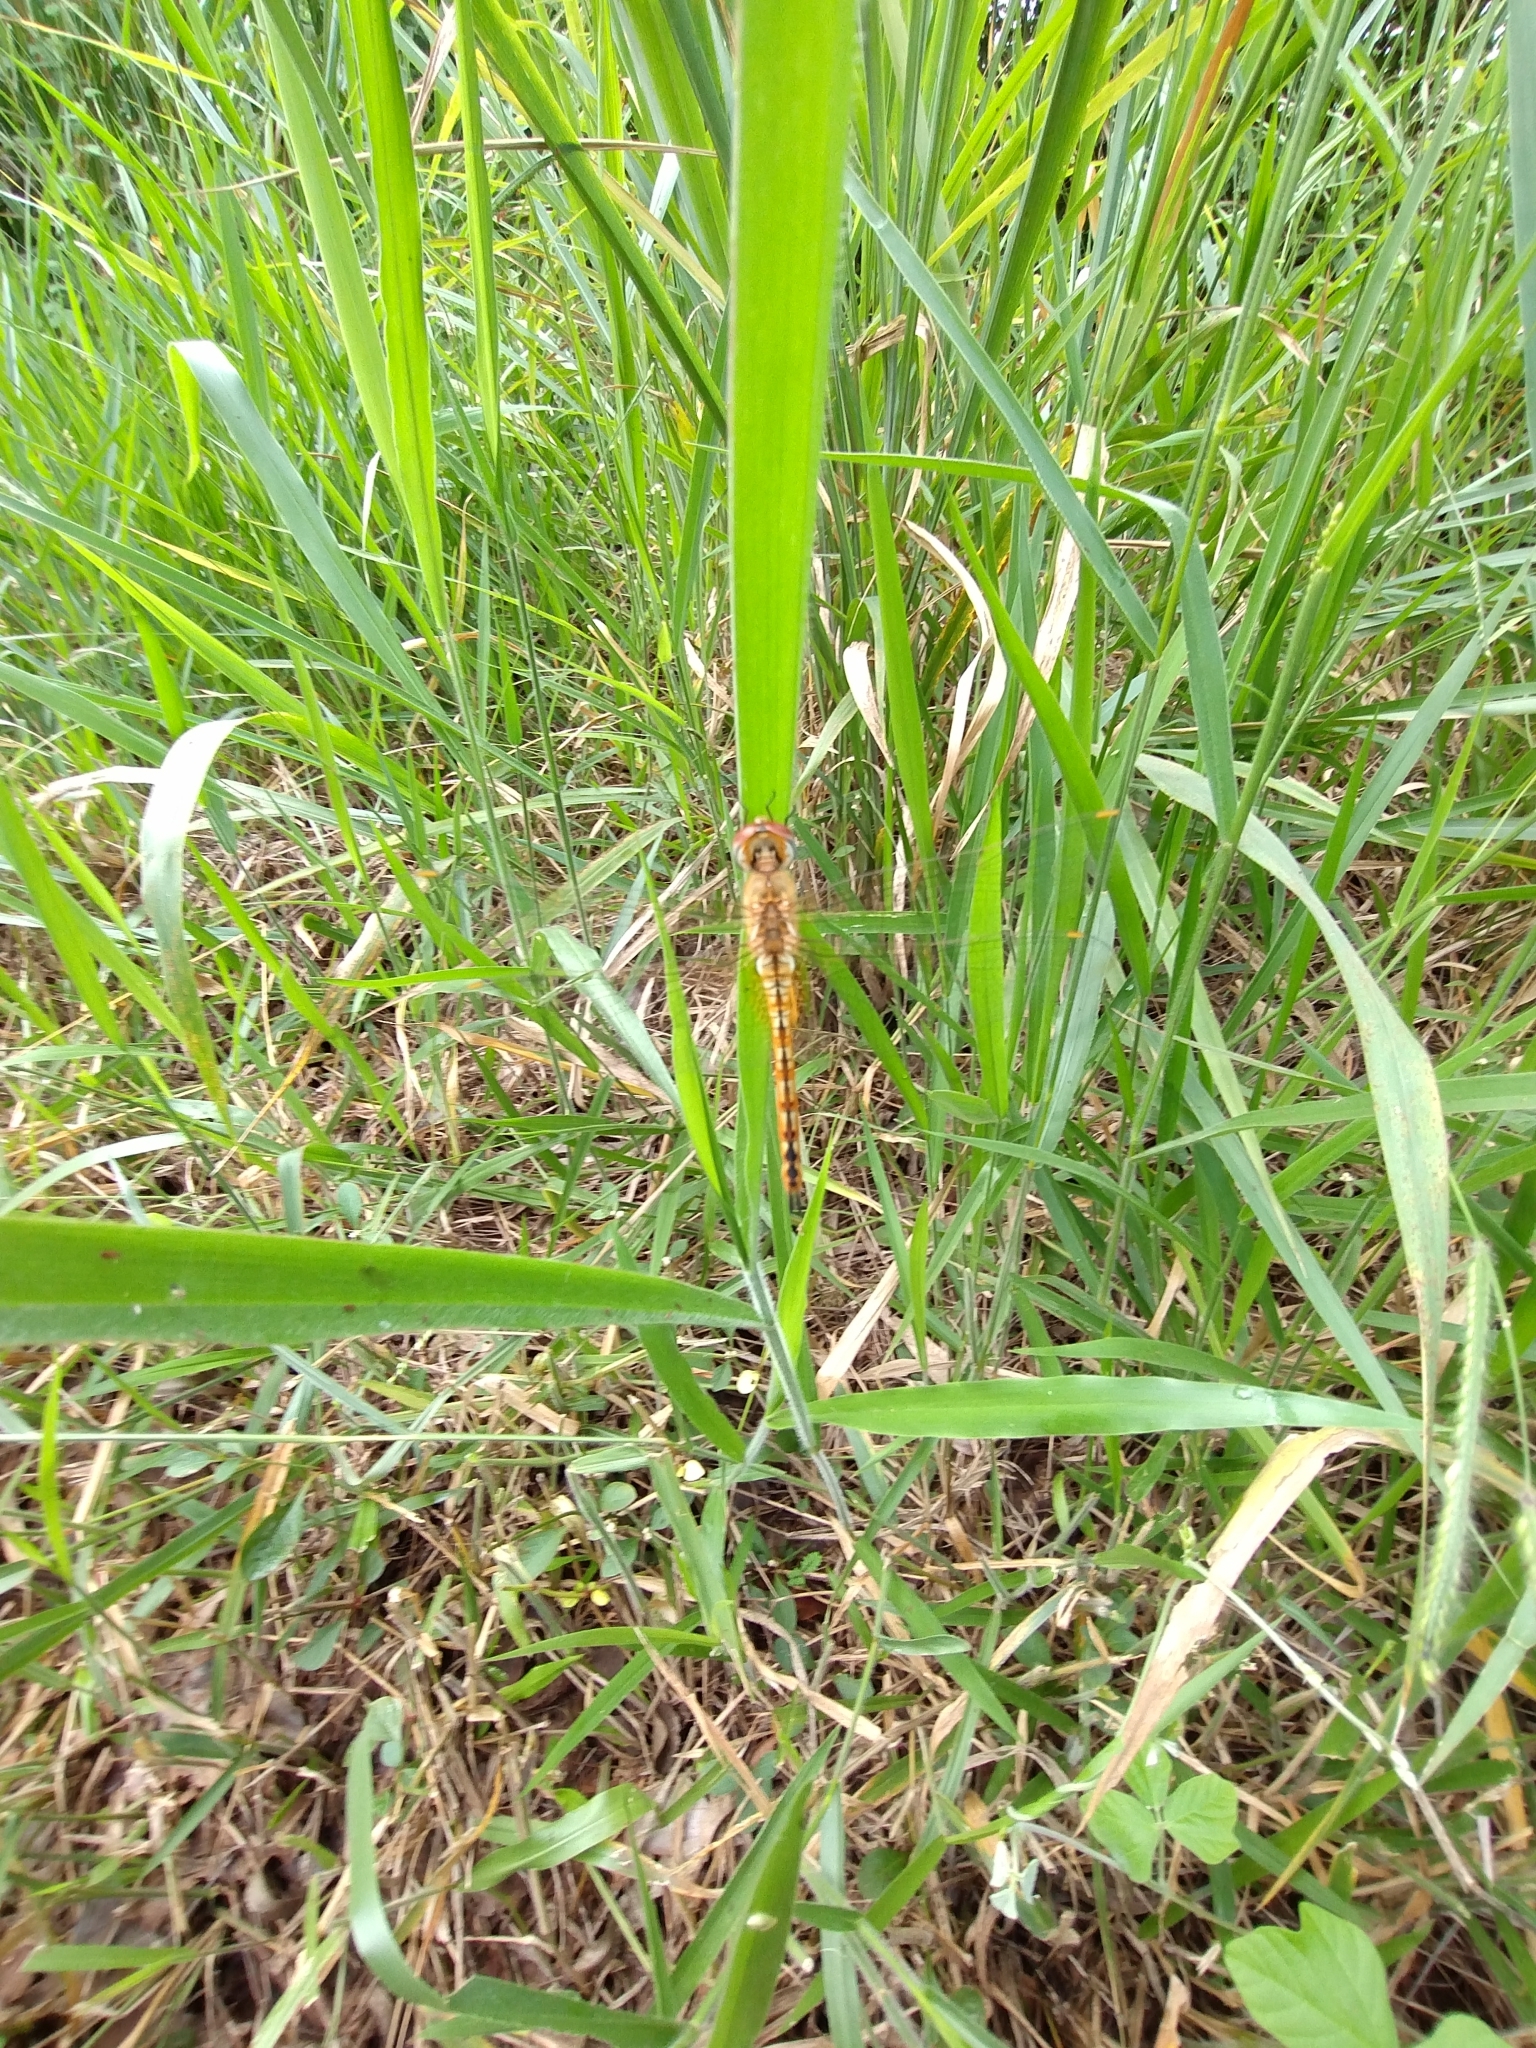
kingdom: Animalia
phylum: Arthropoda
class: Insecta
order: Odonata
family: Libellulidae
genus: Pantala
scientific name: Pantala flavescens
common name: Wandering glider
